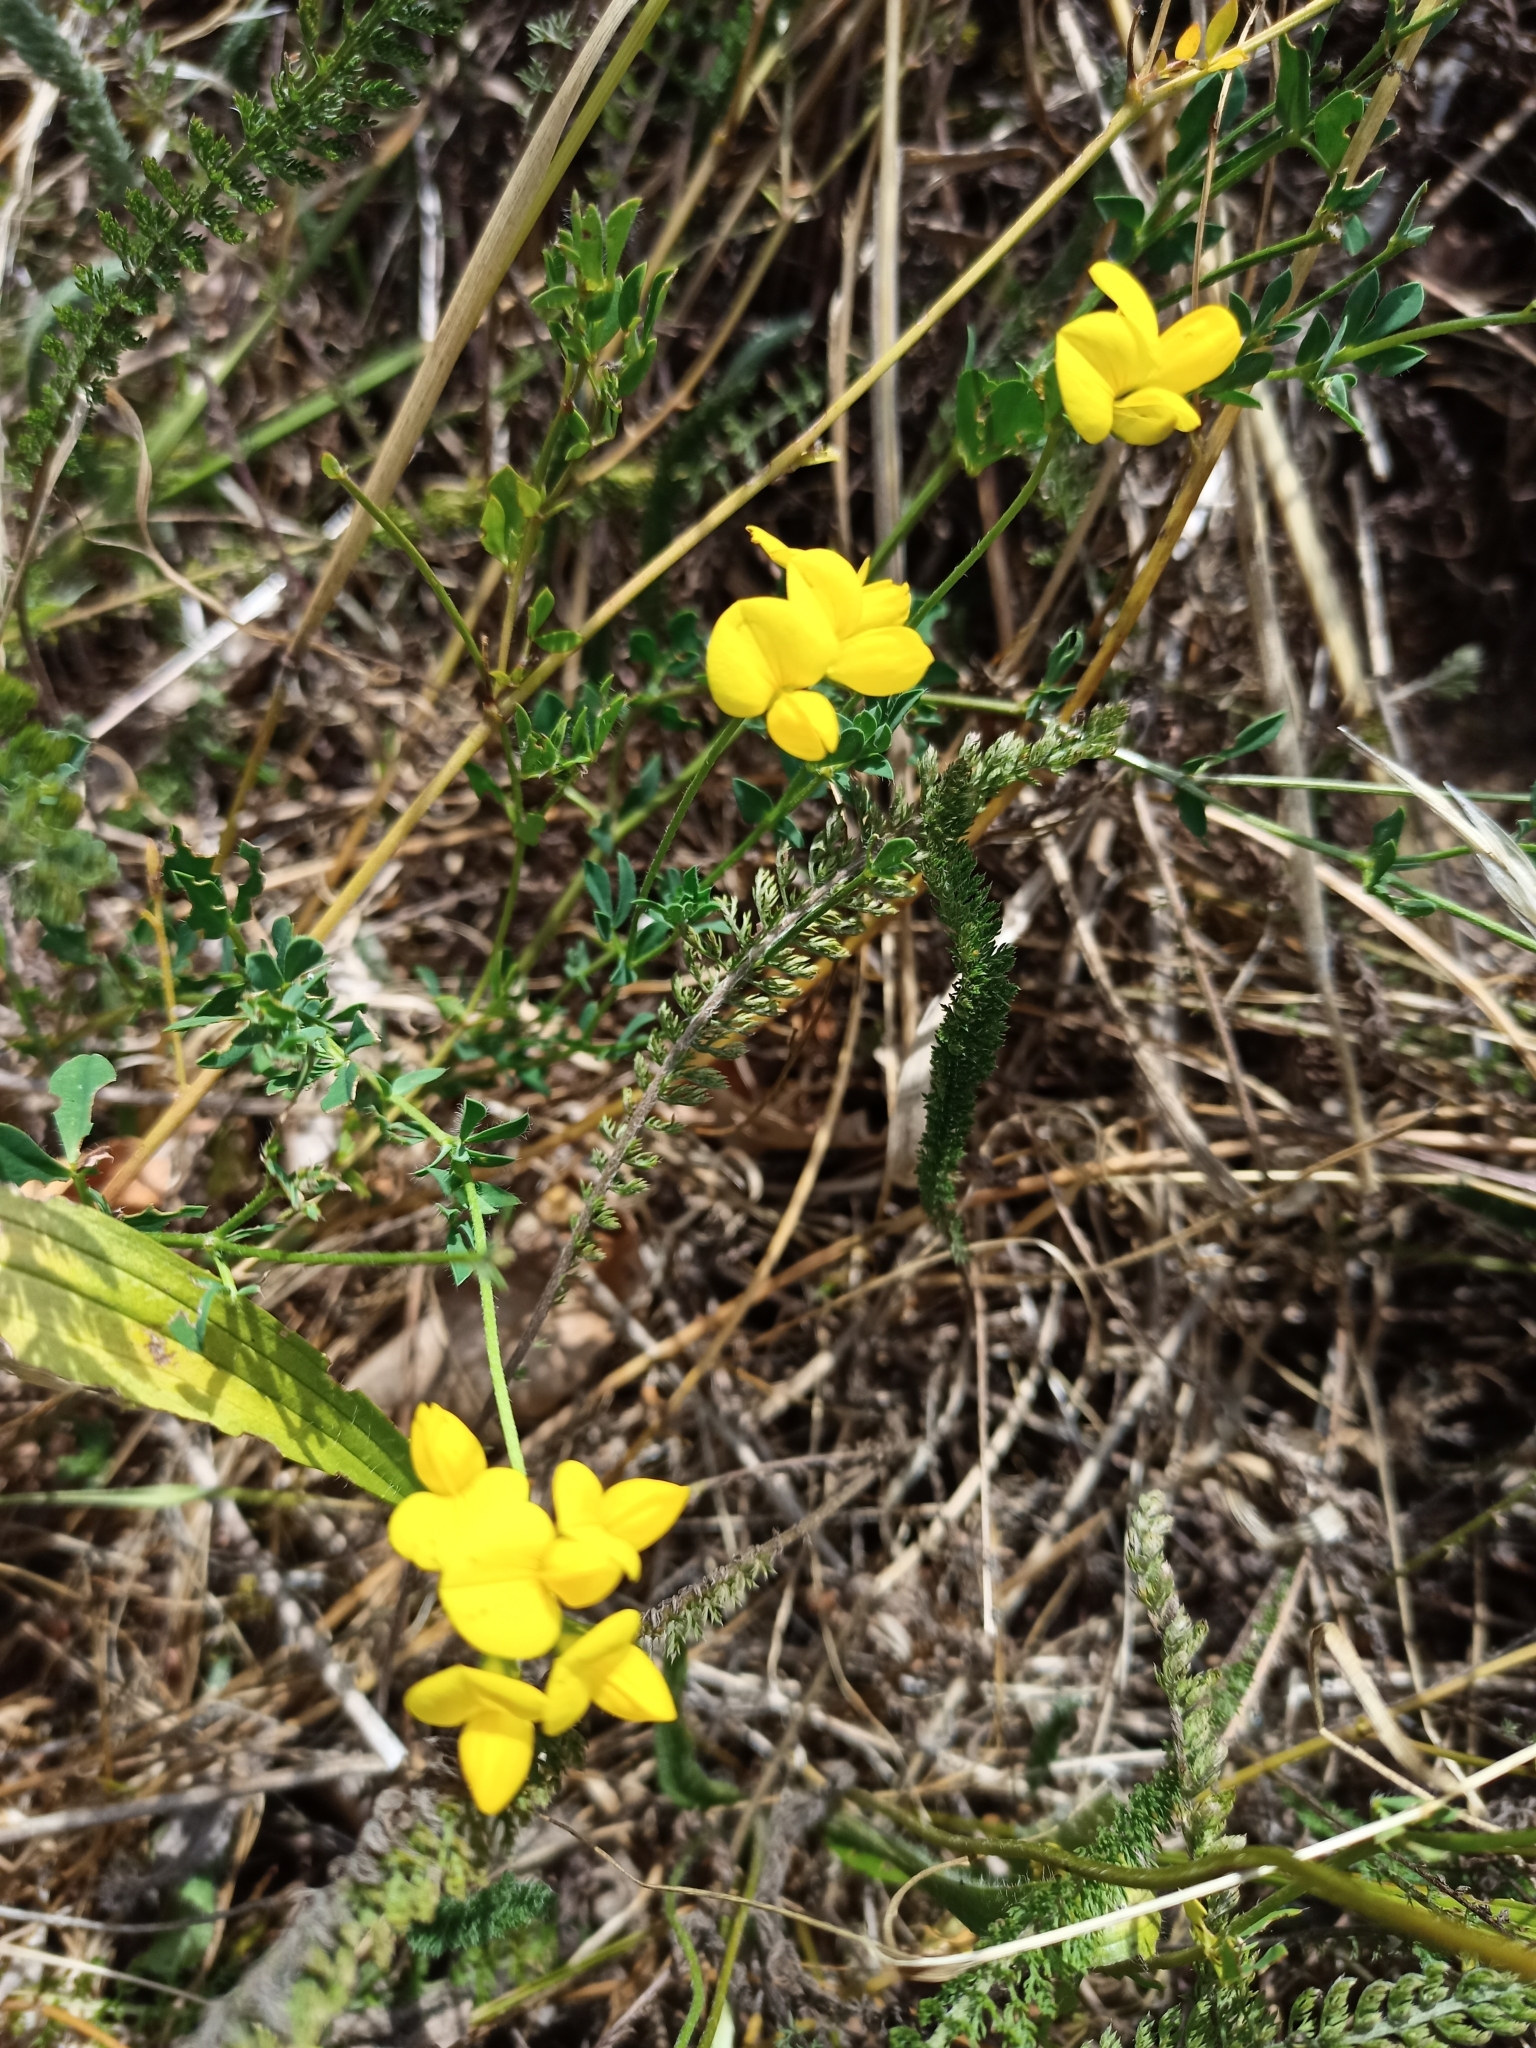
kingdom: Plantae
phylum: Tracheophyta
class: Magnoliopsida
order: Fabales
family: Fabaceae
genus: Lotus
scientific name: Lotus corniculatus
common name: Common bird's-foot-trefoil
